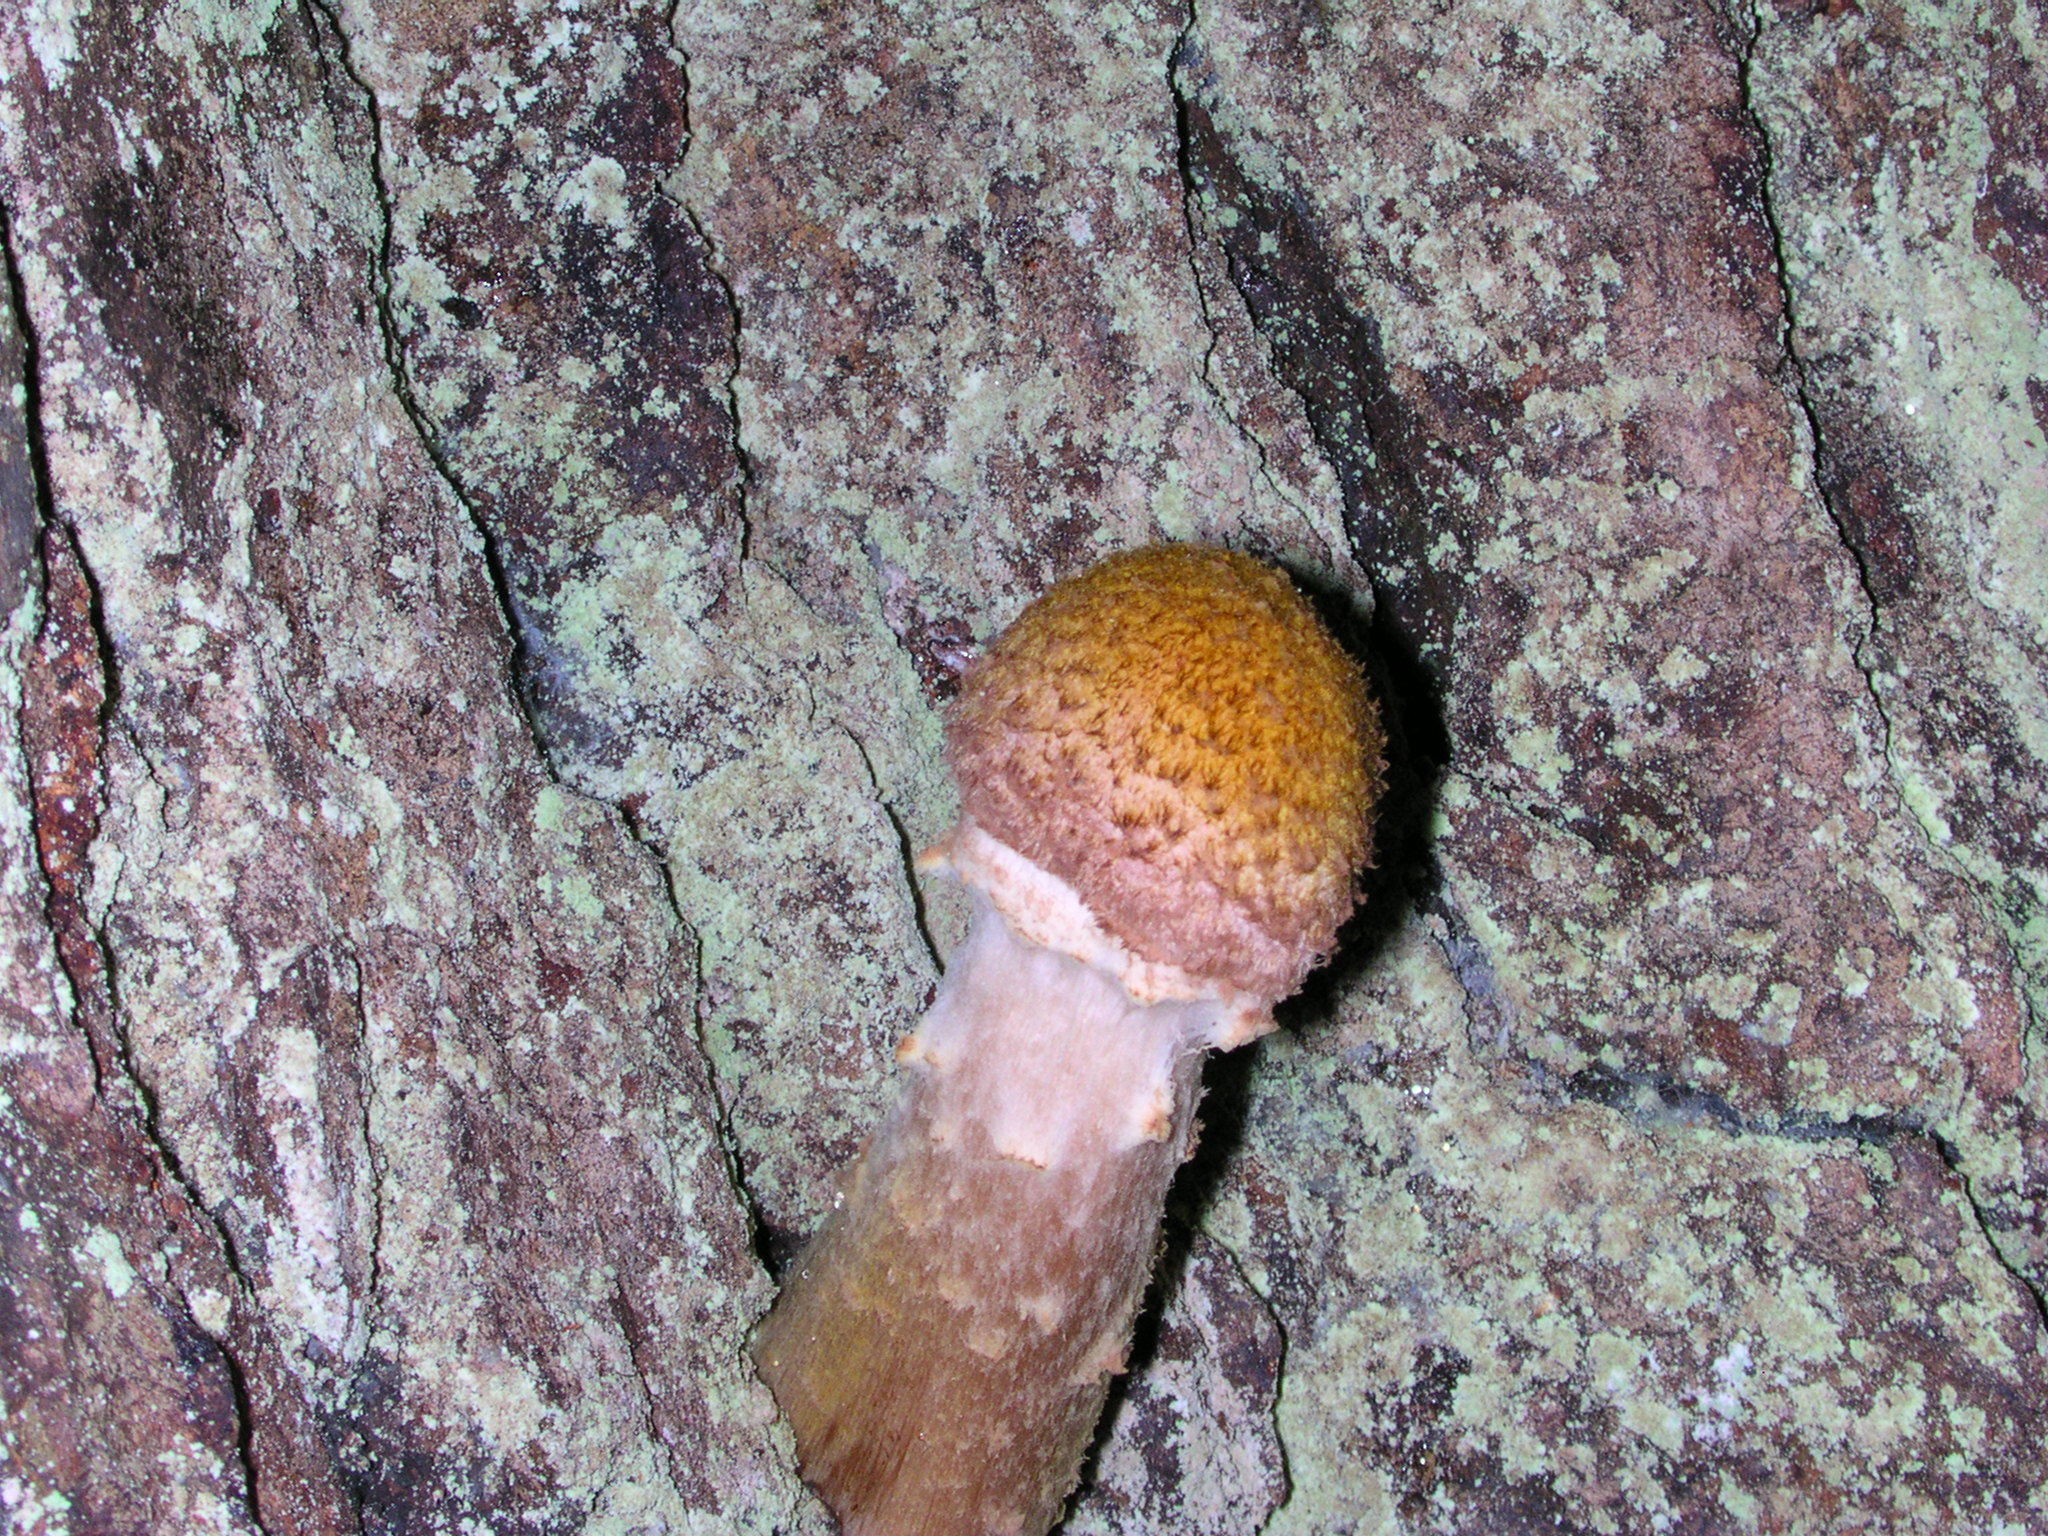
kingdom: Fungi
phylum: Basidiomycota
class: Agaricomycetes
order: Agaricales
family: Physalacriaceae
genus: Armillaria
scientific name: Armillaria mellea
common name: Honey fungus
